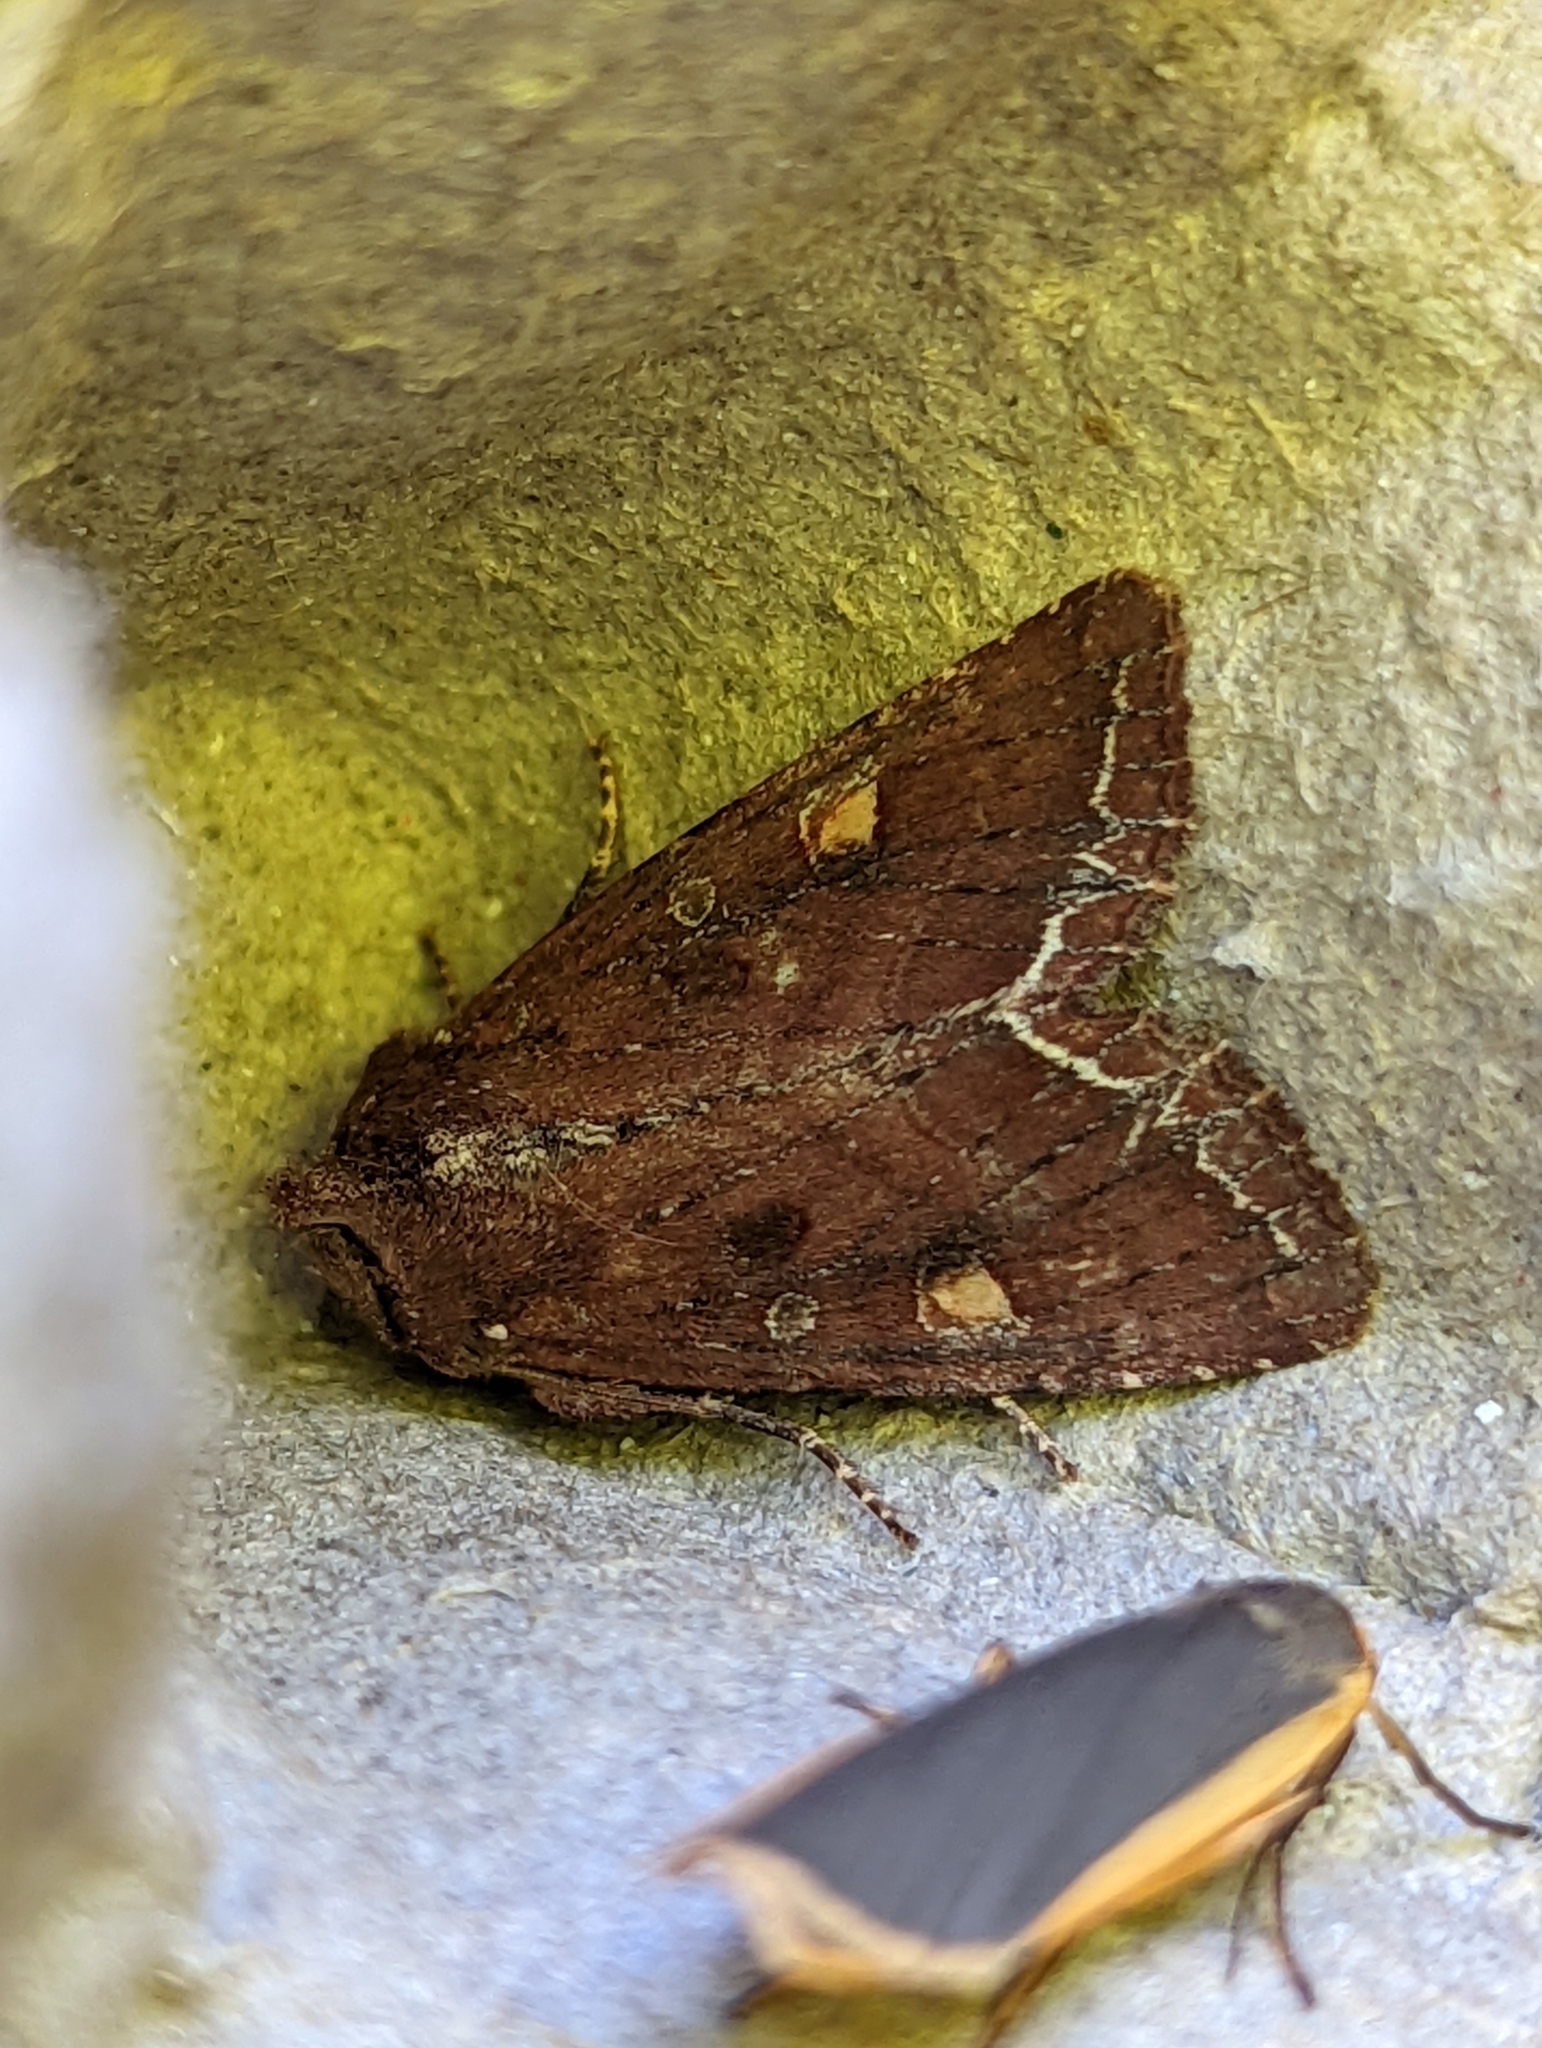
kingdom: Animalia
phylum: Arthropoda
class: Insecta
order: Lepidoptera
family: Noctuidae
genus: Lacanobia
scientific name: Lacanobia oleracea
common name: Bright-line brown-eye
